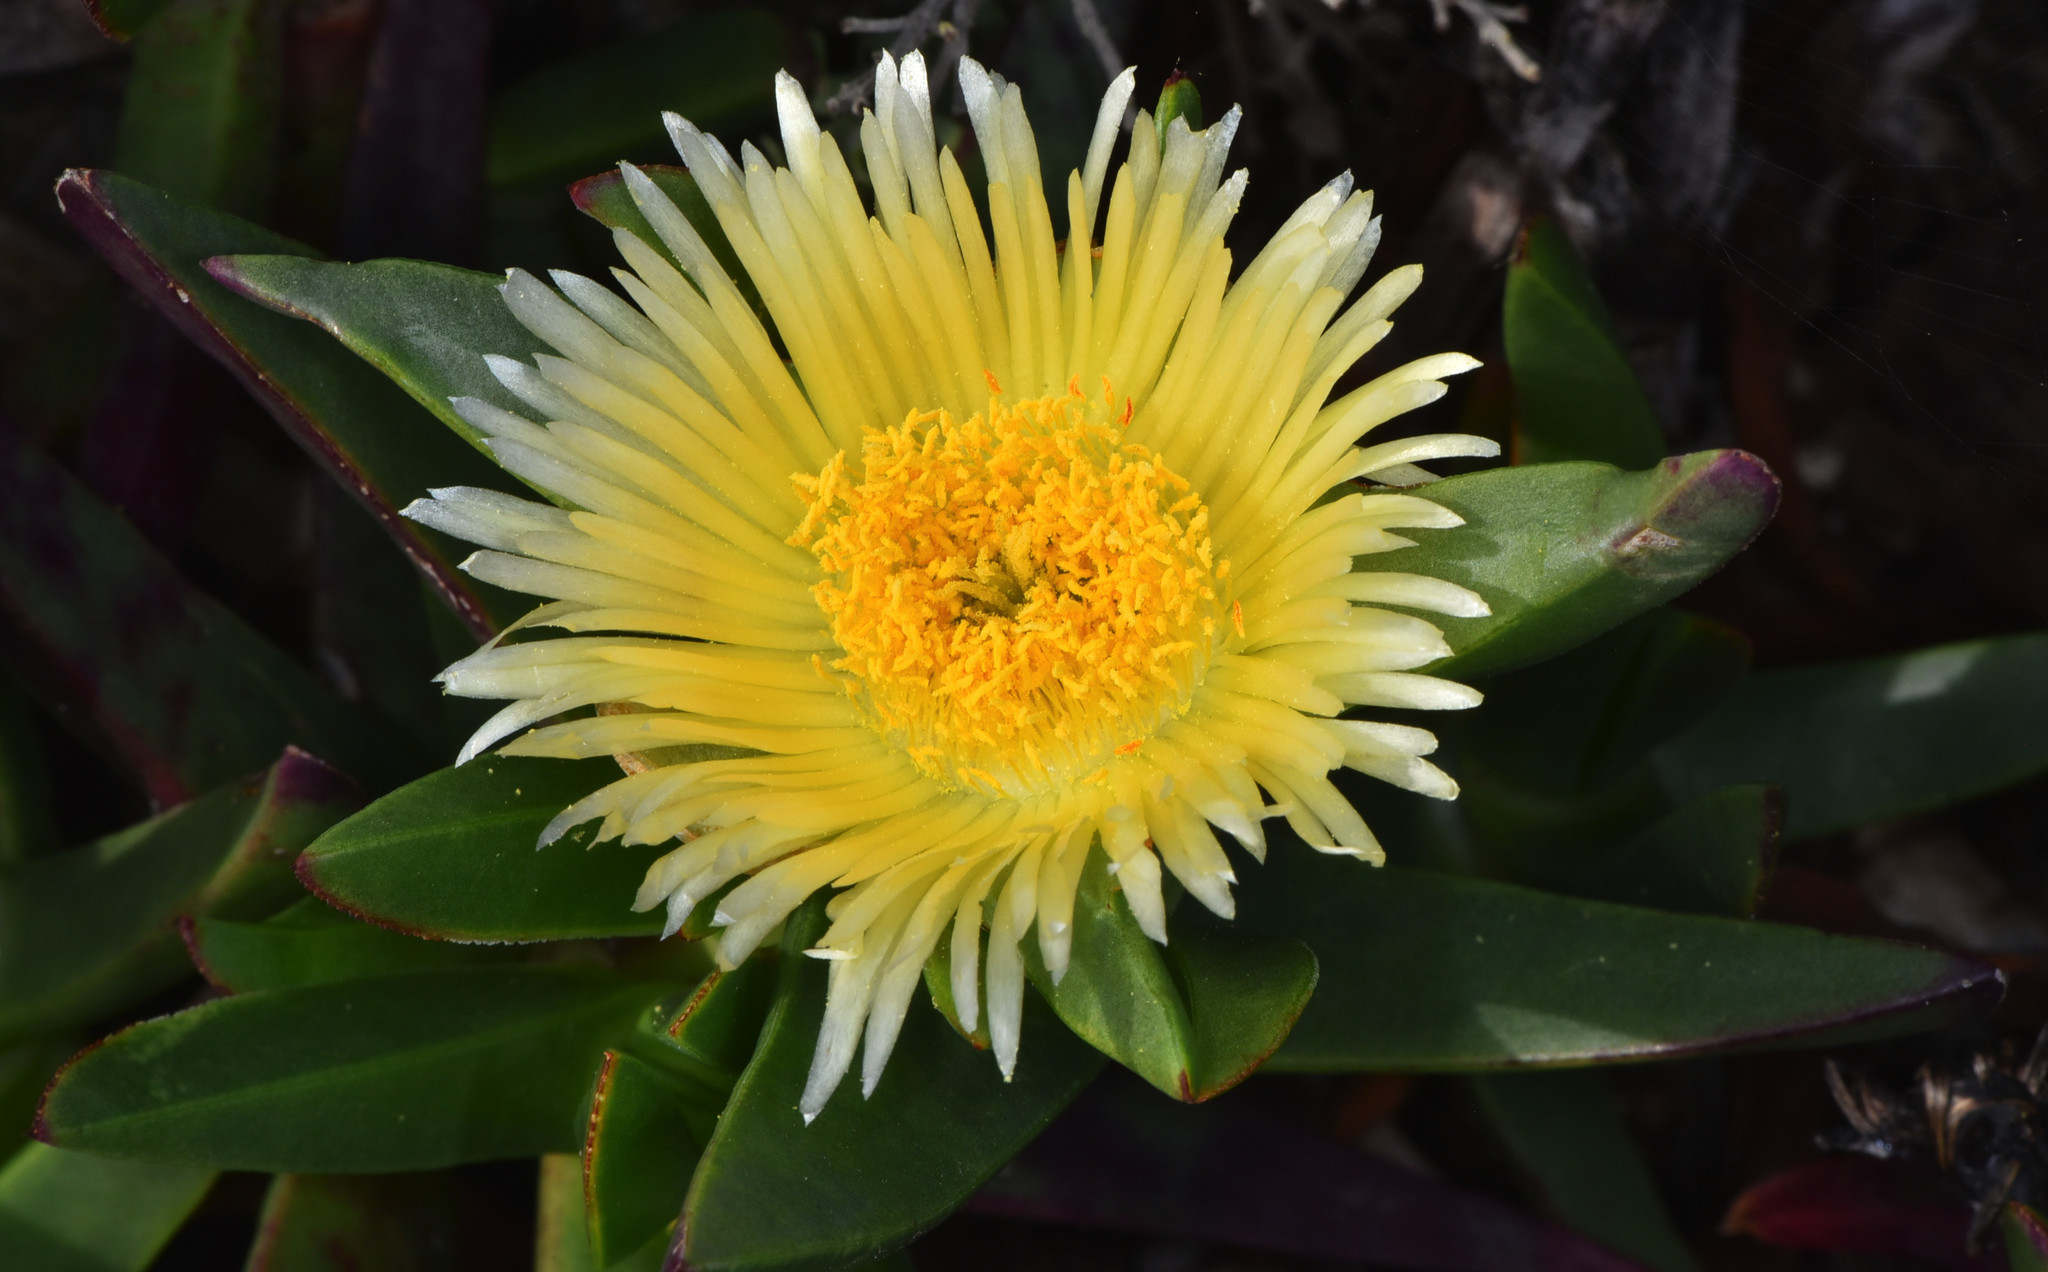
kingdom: Plantae
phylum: Tracheophyta
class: Magnoliopsida
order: Caryophyllales
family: Aizoaceae
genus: Carpobrotus
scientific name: Carpobrotus edulis
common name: Hottentot-fig
